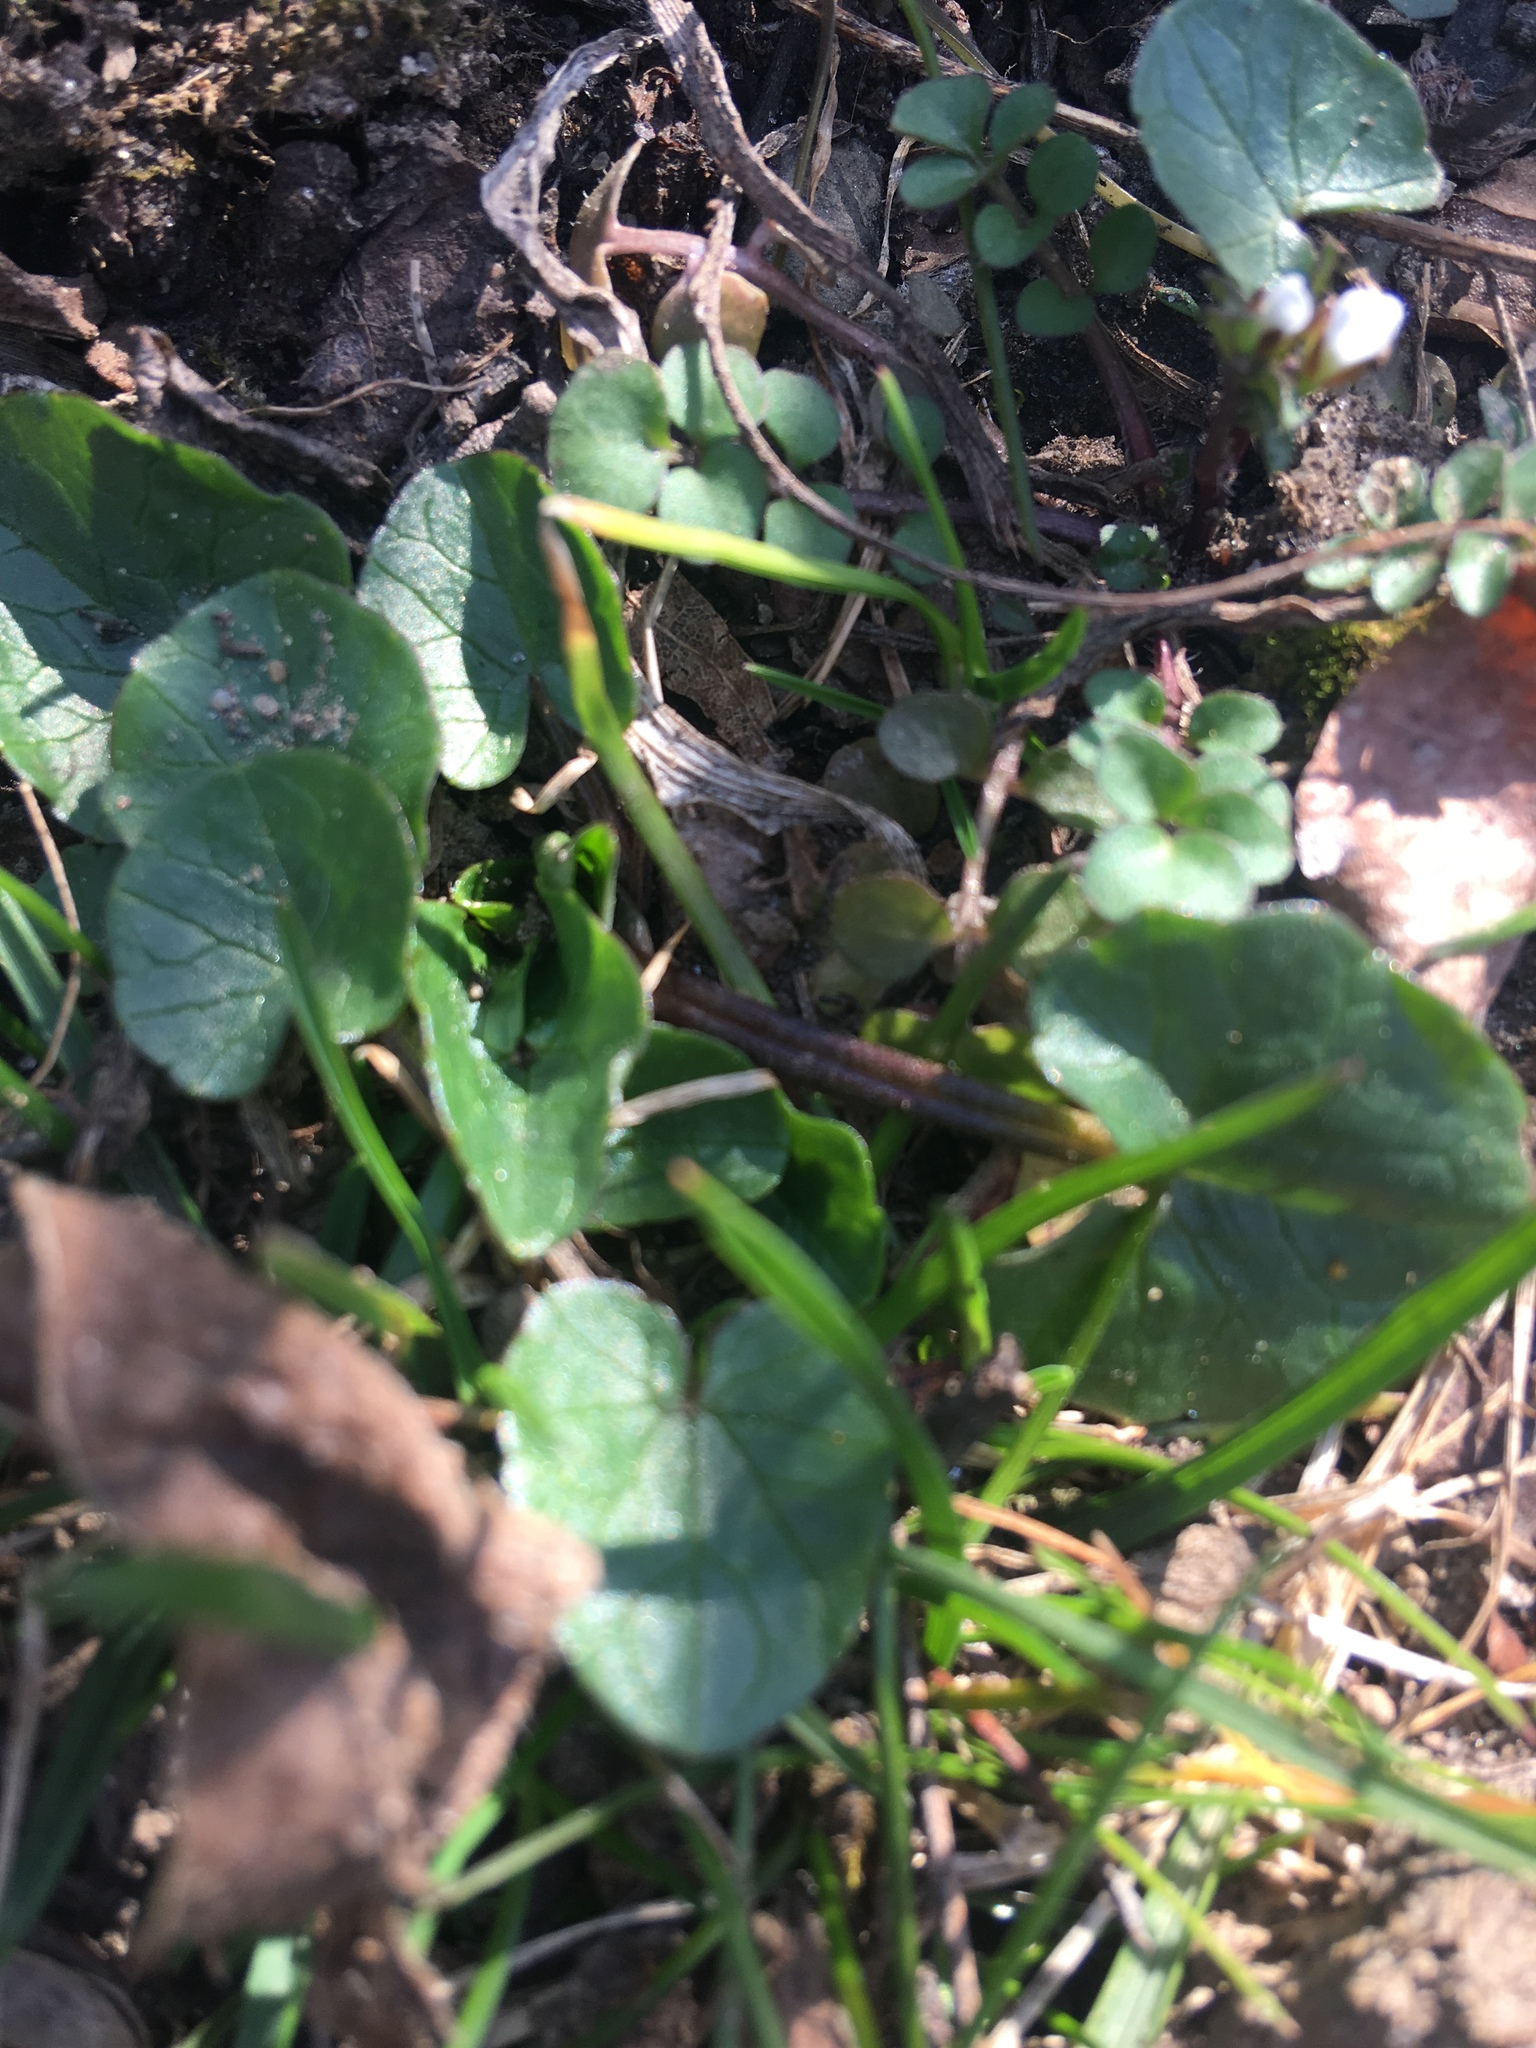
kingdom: Plantae
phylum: Tracheophyta
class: Magnoliopsida
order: Ranunculales
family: Ranunculaceae
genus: Ficaria
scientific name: Ficaria verna
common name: Lesser celandine
